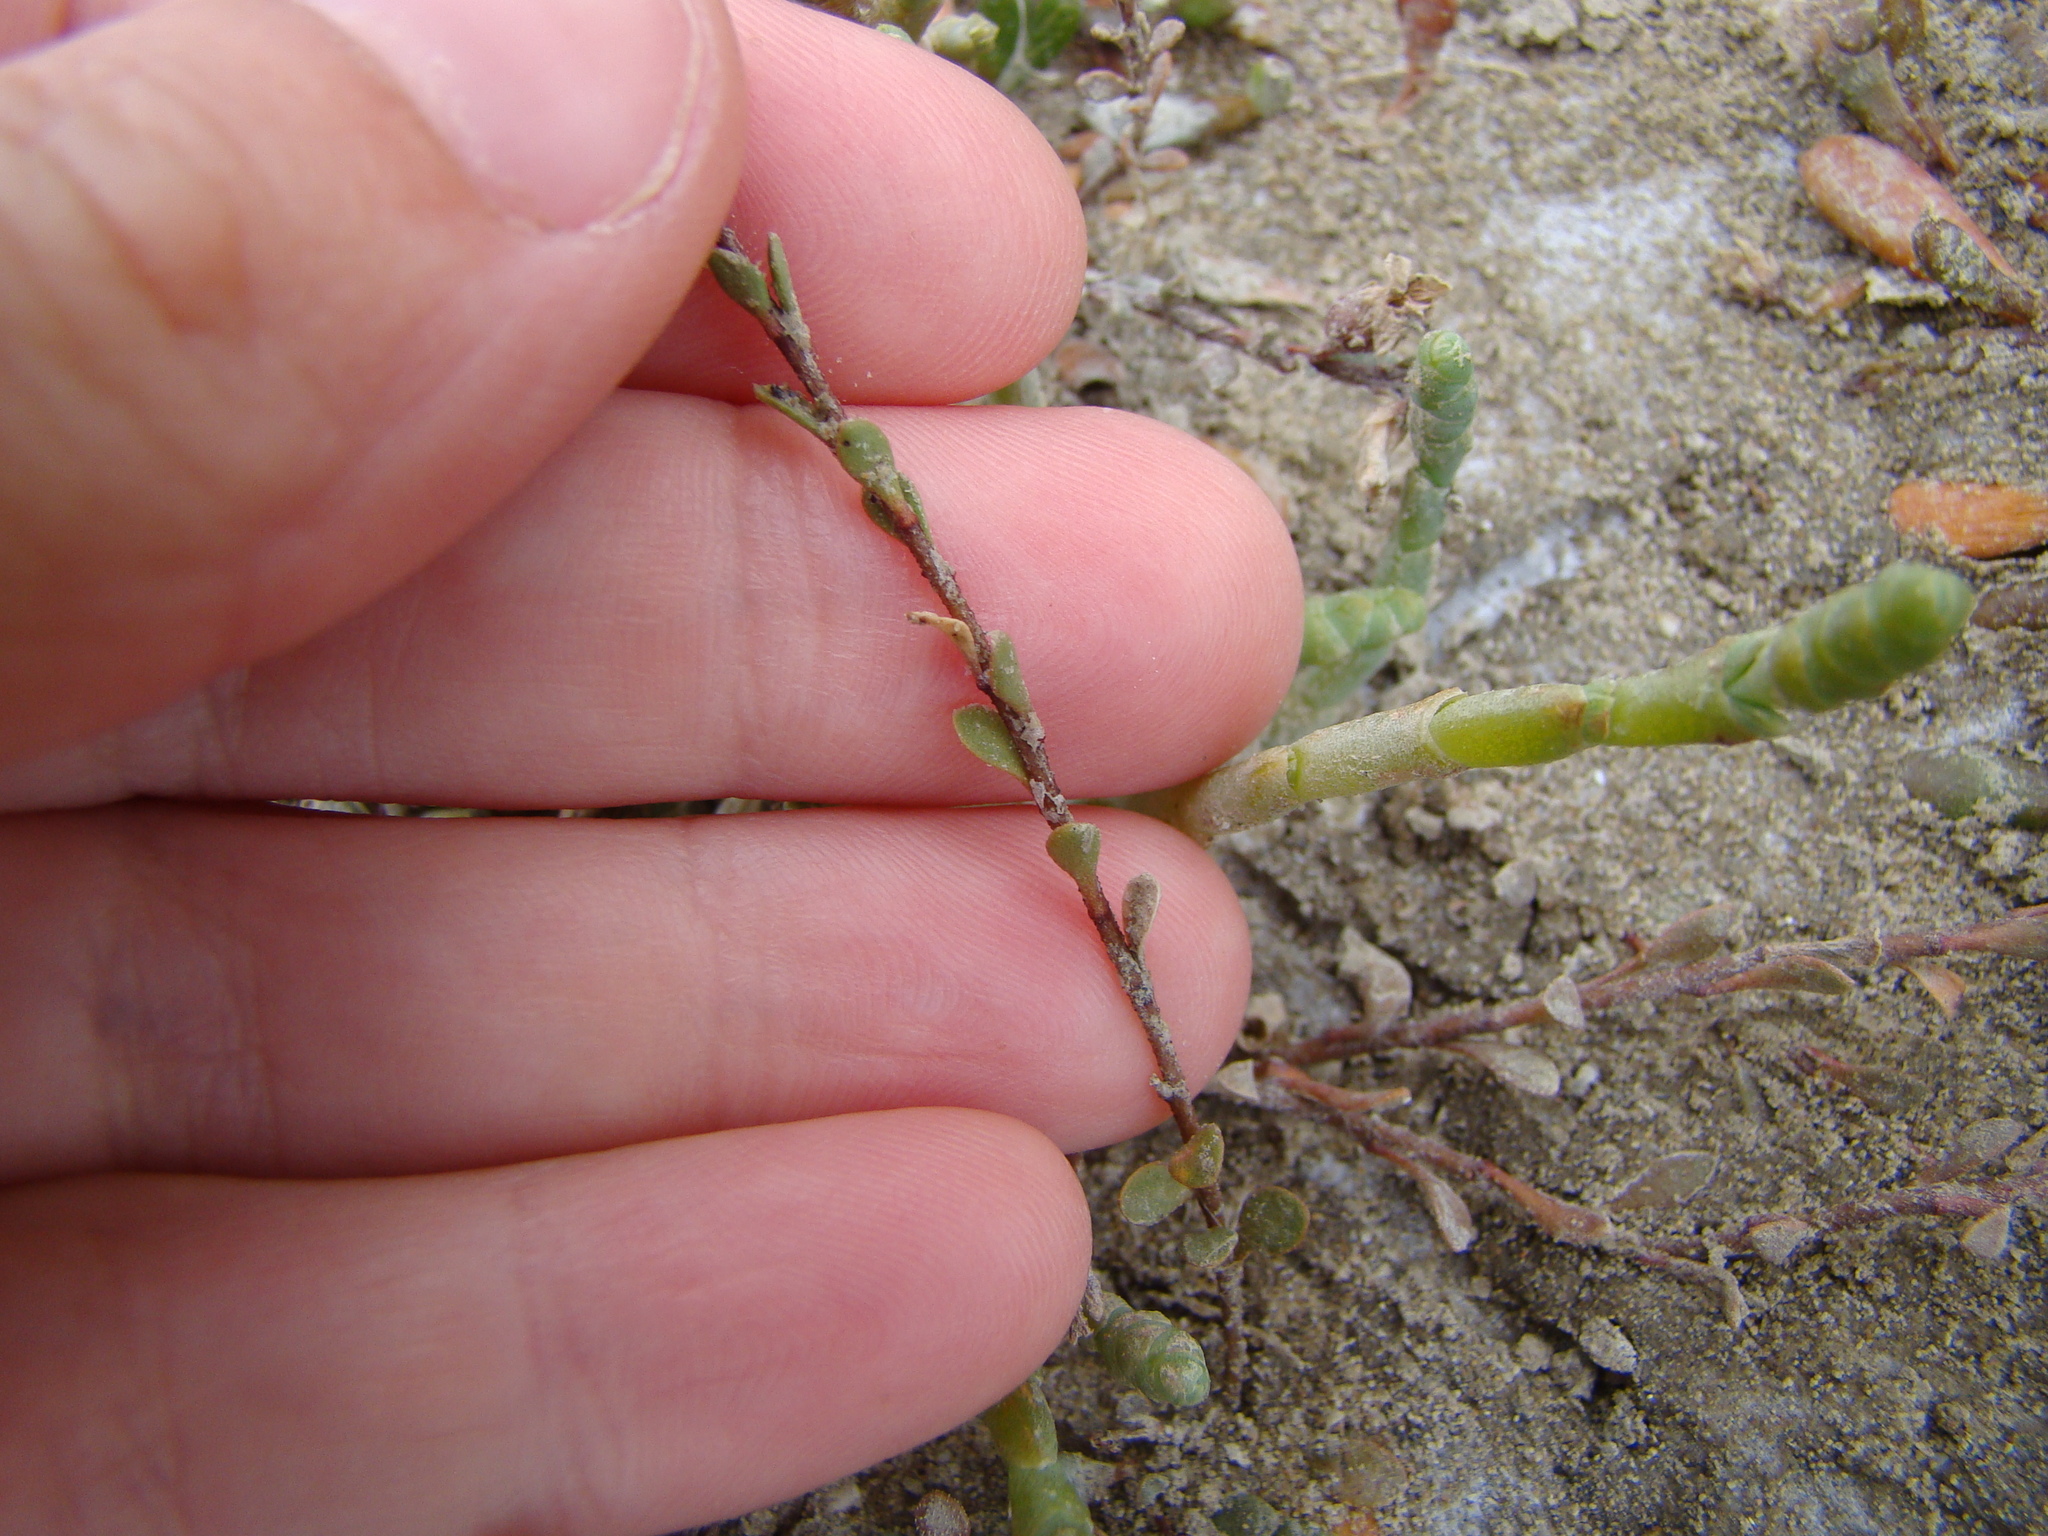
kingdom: Plantae
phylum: Tracheophyta
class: Magnoliopsida
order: Ericales
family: Primulaceae
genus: Samolus
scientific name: Samolus repens
